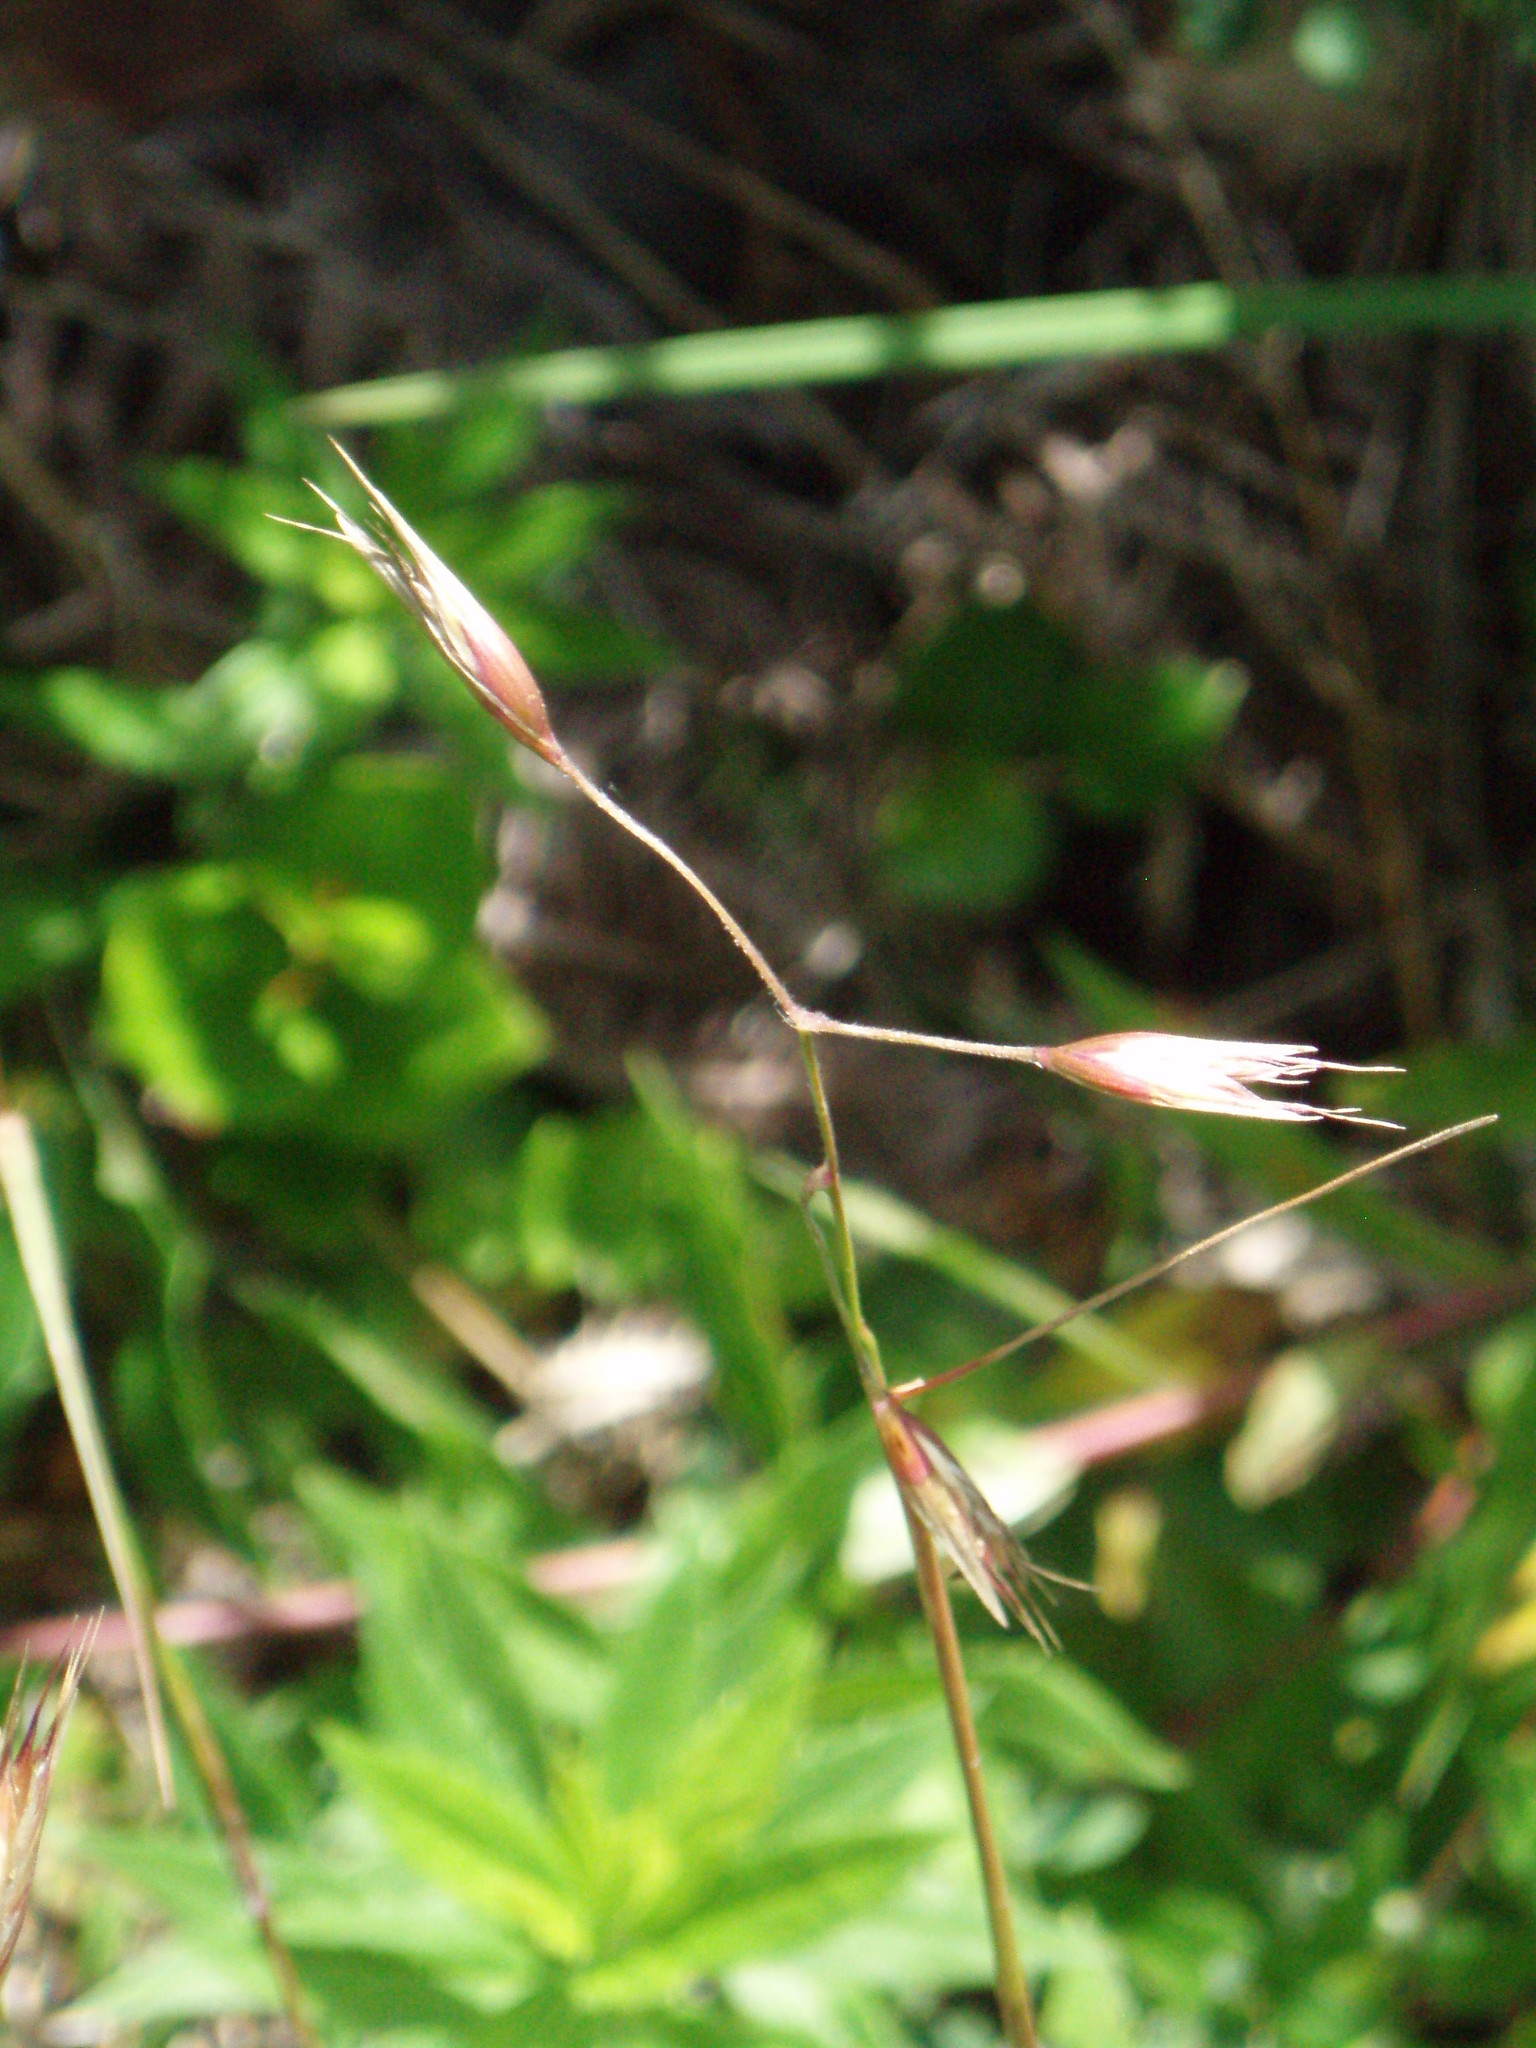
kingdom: Plantae
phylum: Tracheophyta
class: Liliopsida
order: Poales
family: Poaceae
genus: Danthonia
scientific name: Danthonia californica
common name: California oat grass
